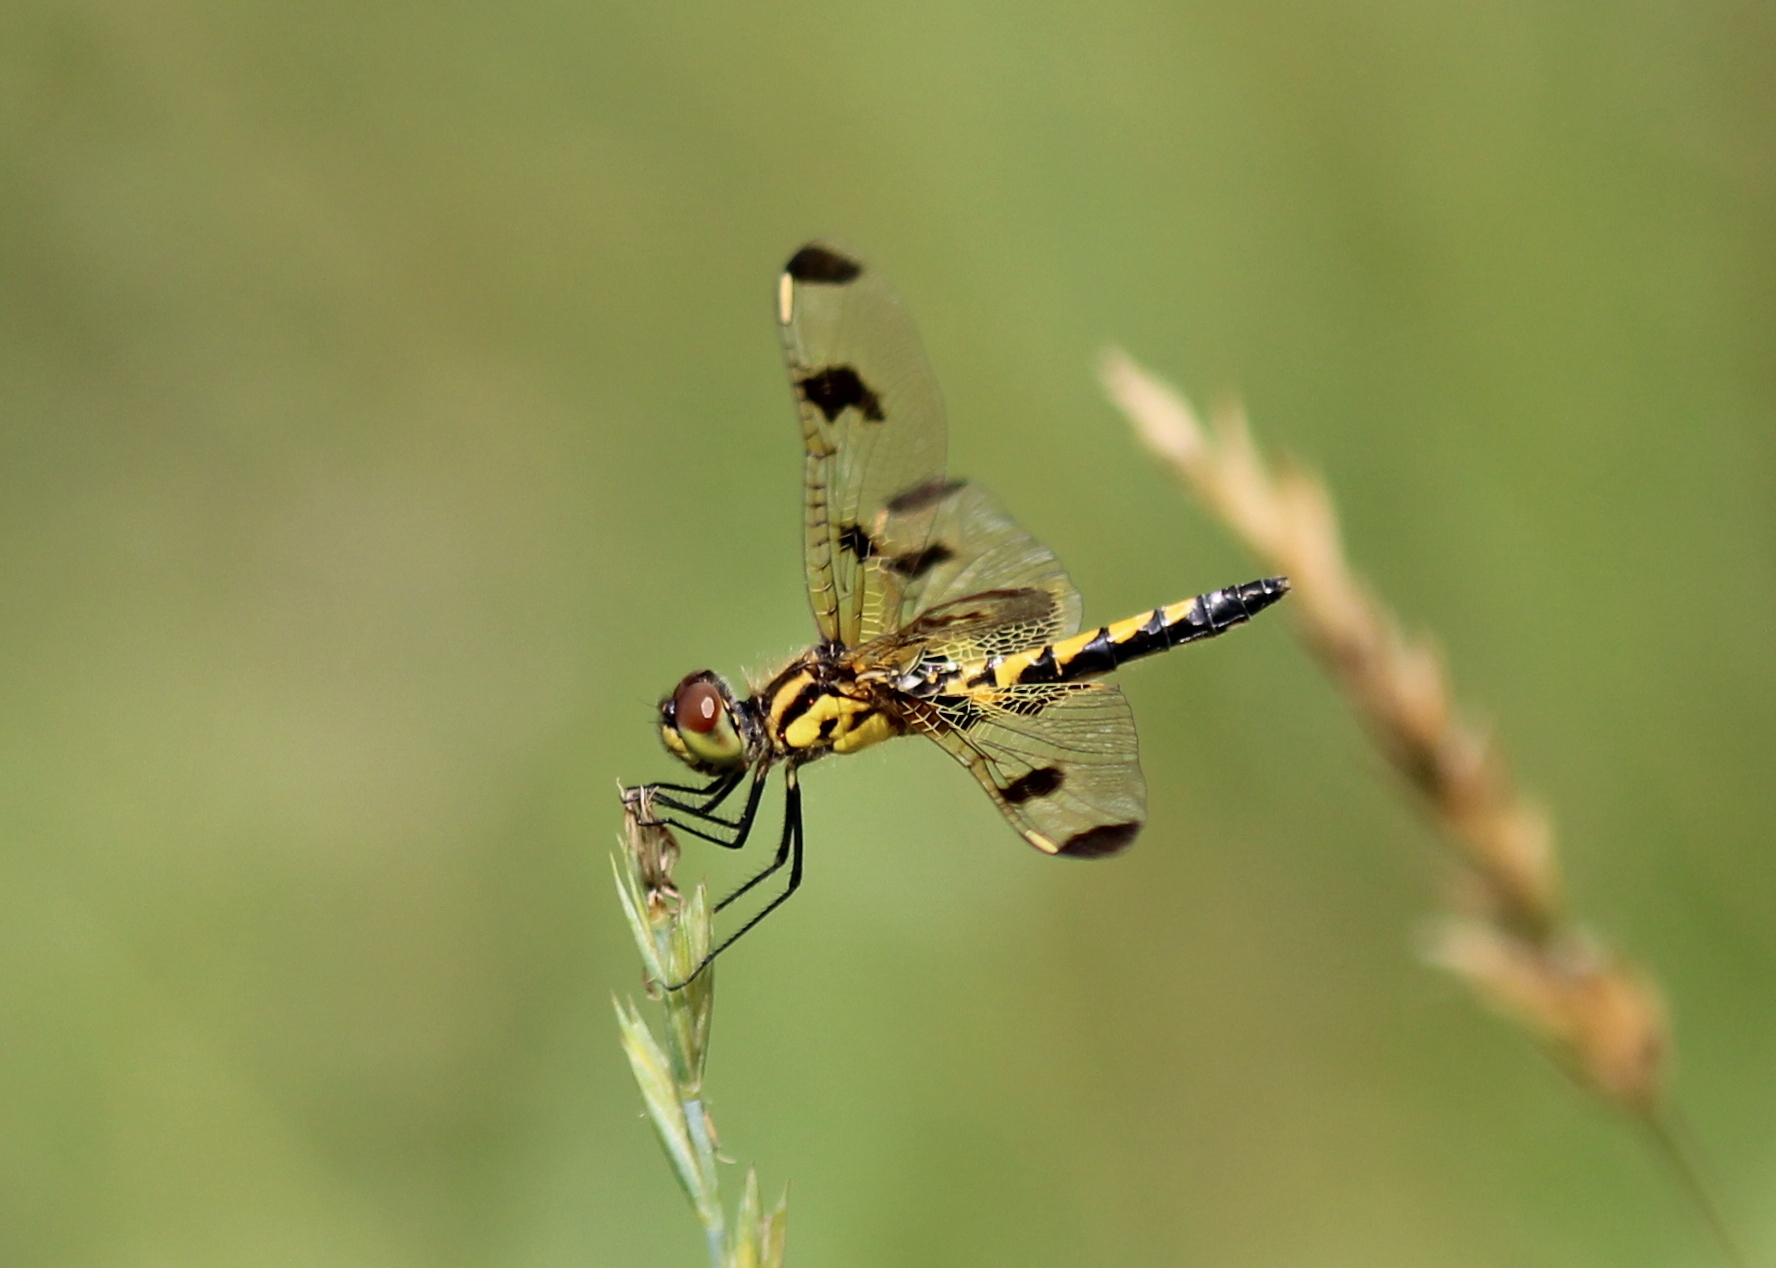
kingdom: Animalia
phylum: Arthropoda
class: Insecta
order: Odonata
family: Libellulidae
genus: Celithemis
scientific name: Celithemis elisa
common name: Calico pennant
